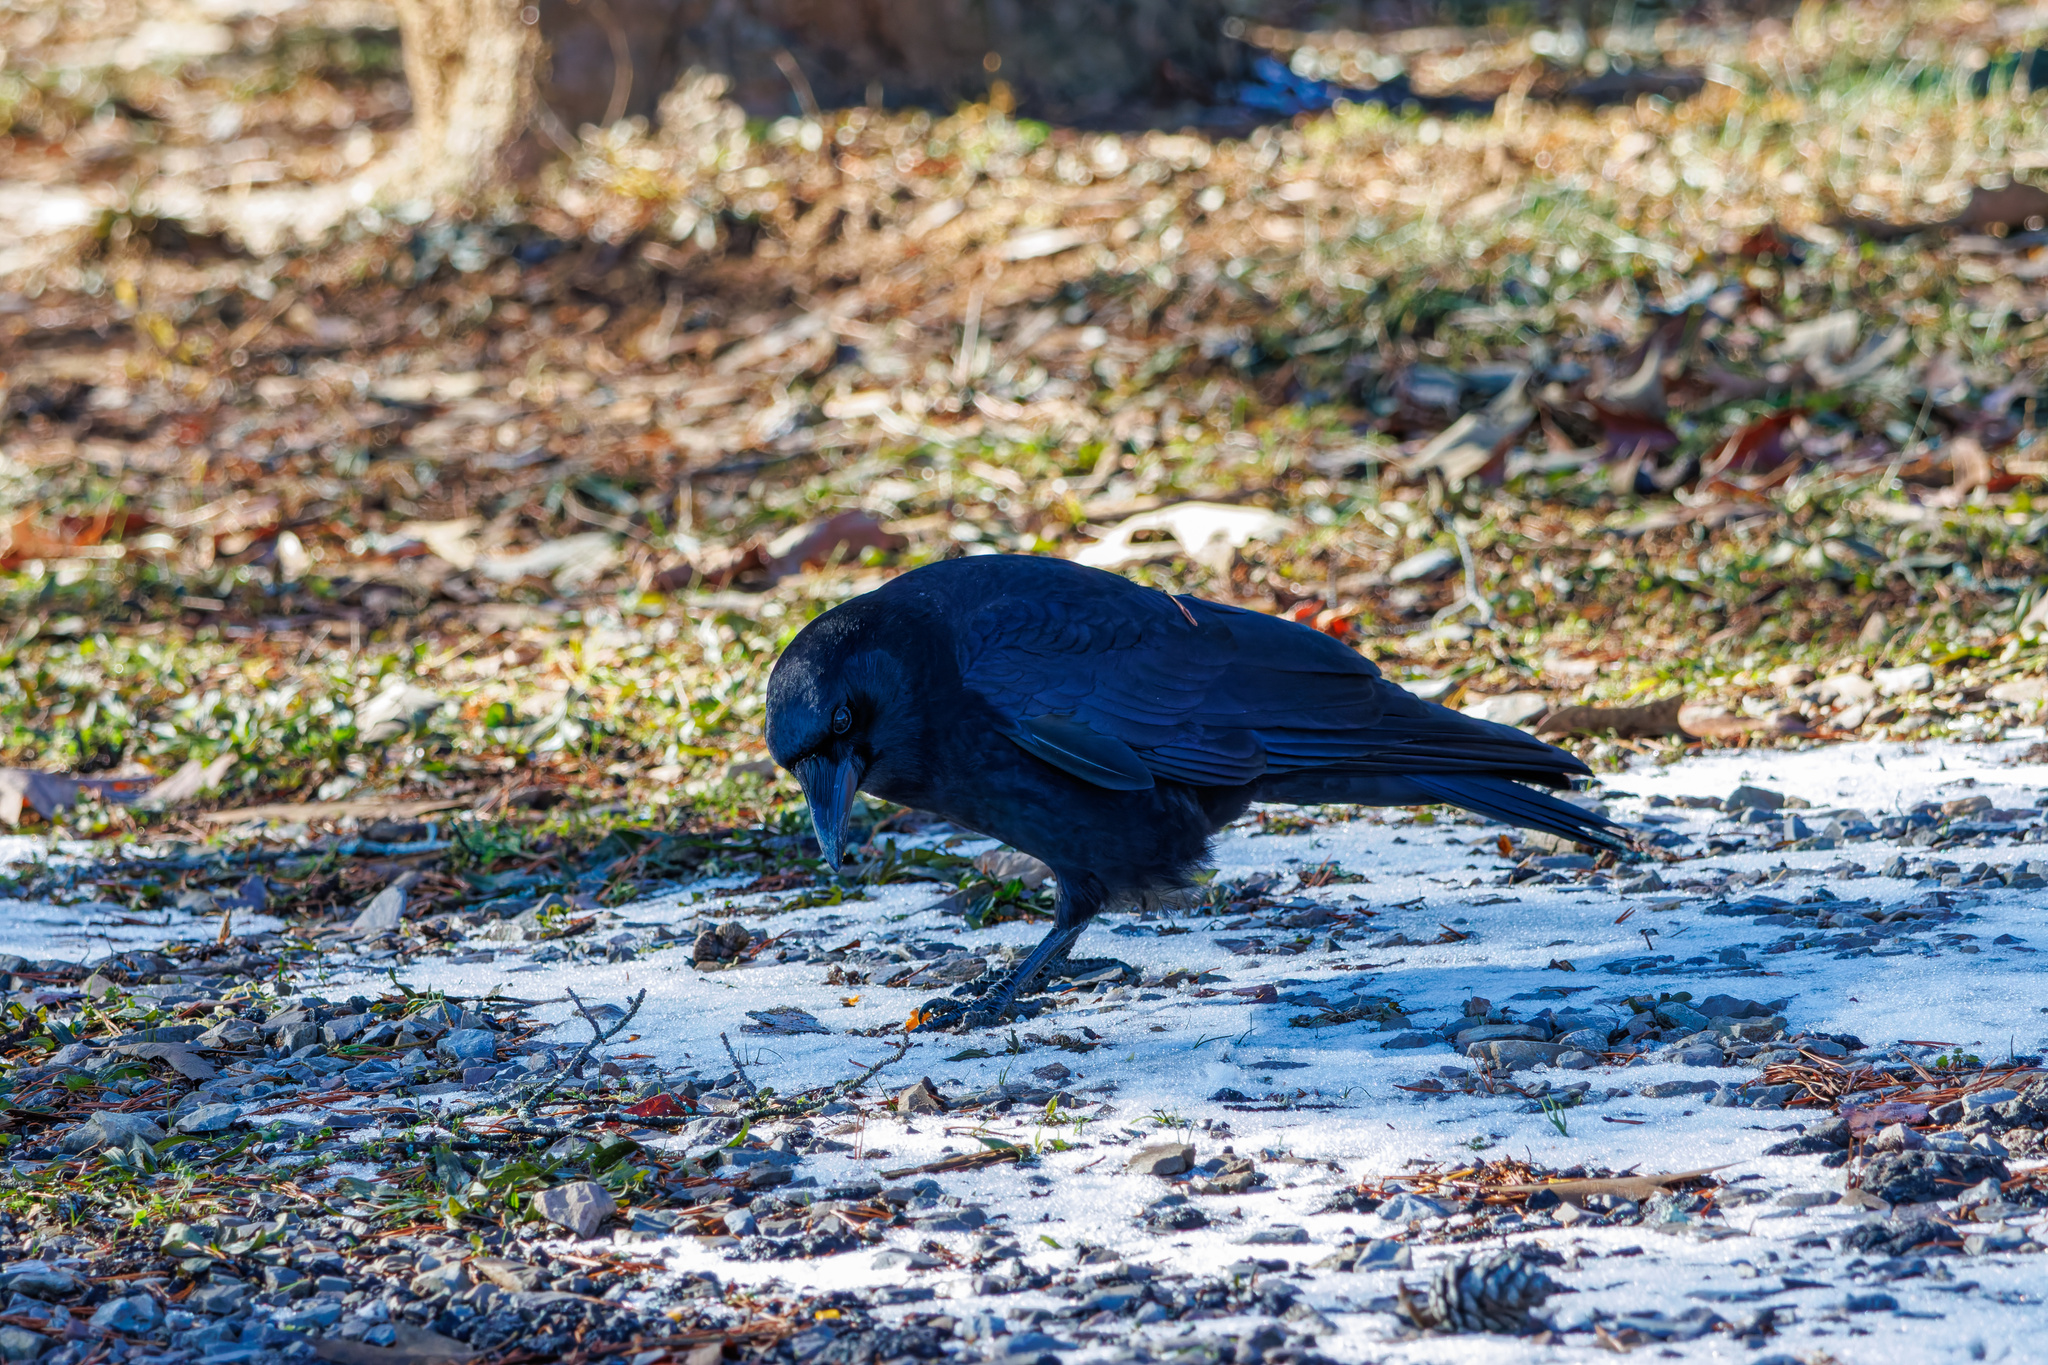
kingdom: Animalia
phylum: Chordata
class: Aves
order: Passeriformes
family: Corvidae
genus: Corvus
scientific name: Corvus brachyrhynchos
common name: American crow
